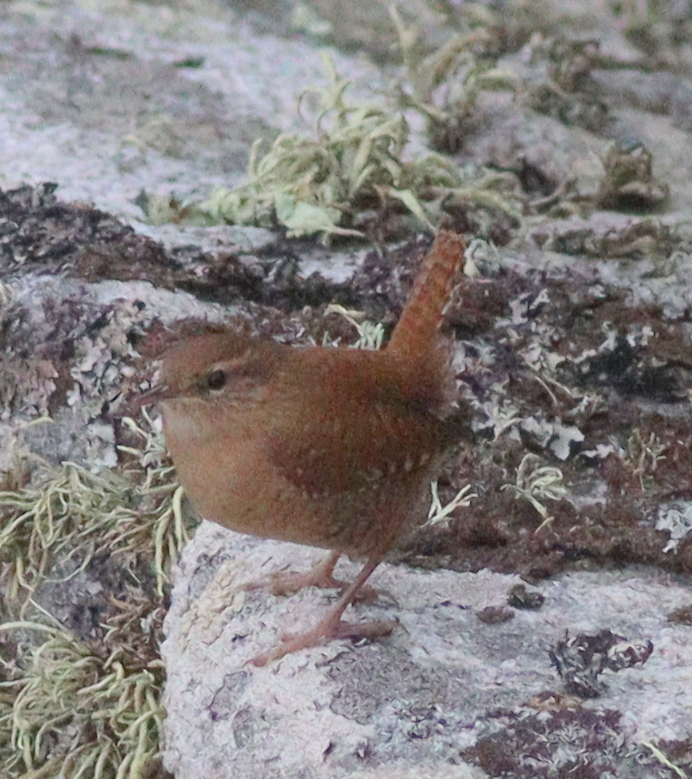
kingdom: Animalia
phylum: Chordata
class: Aves
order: Passeriformes
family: Troglodytidae
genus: Troglodytes
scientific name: Troglodytes troglodytes
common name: Eurasian wren
